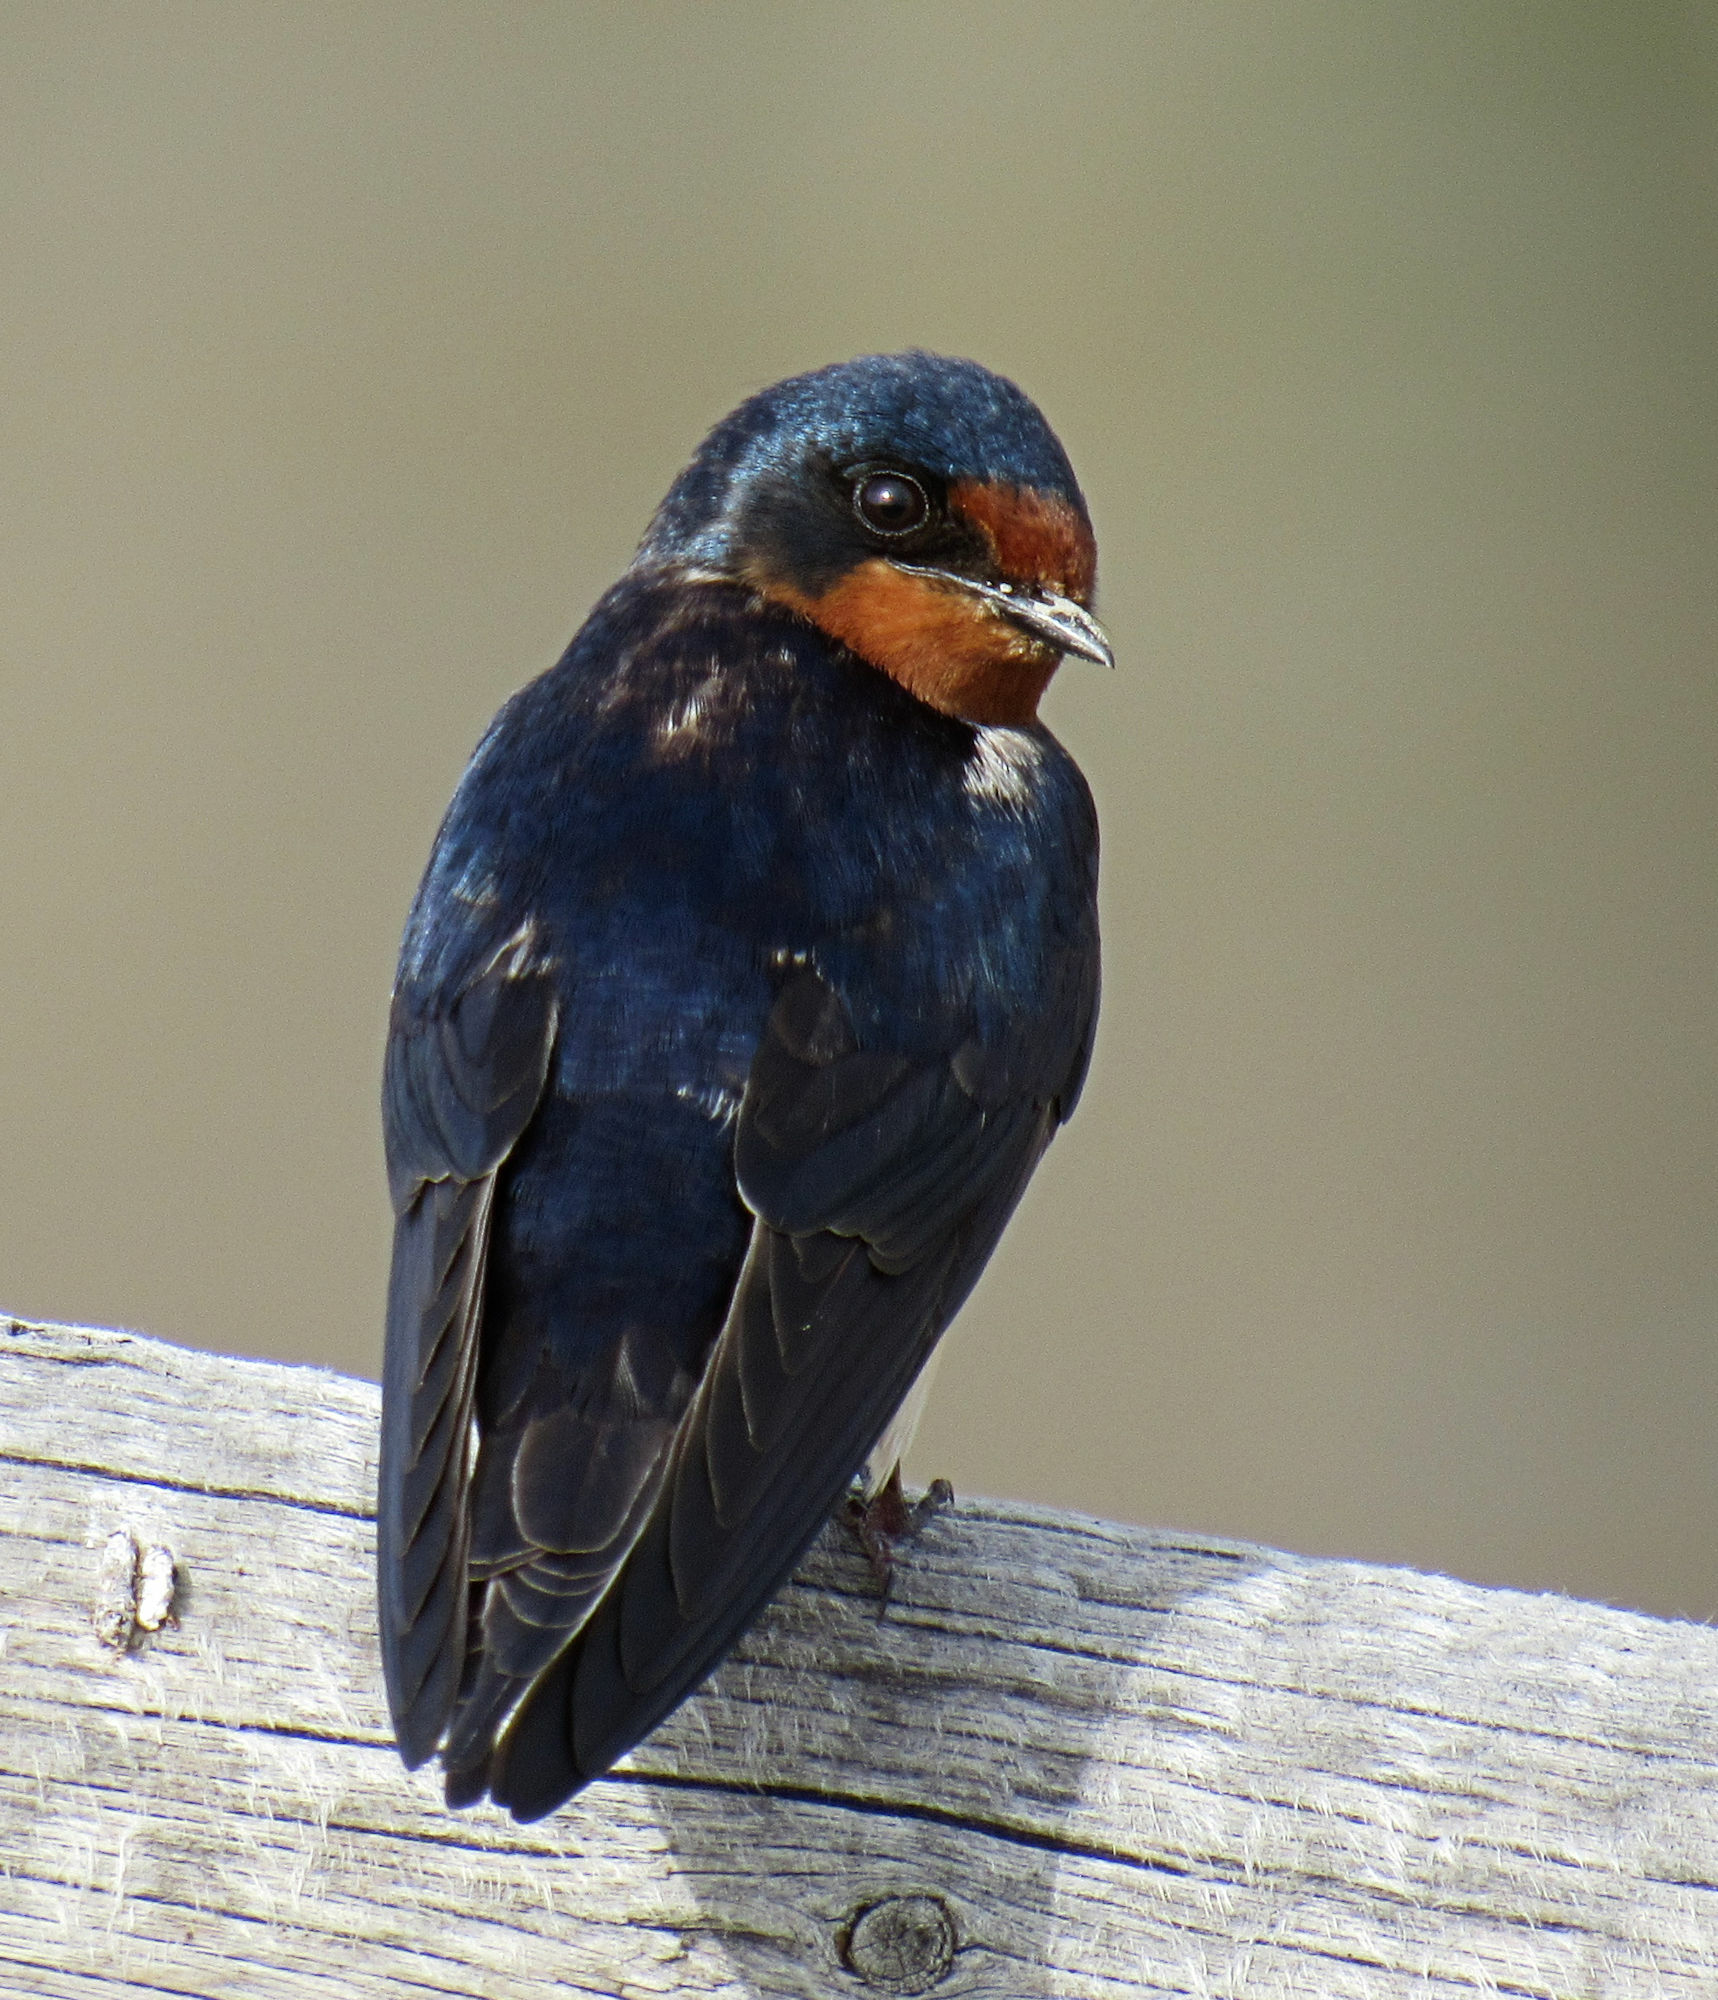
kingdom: Animalia
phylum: Chordata
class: Aves
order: Passeriformes
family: Hirundinidae
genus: Hirundo
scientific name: Hirundo rustica
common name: Barn swallow
